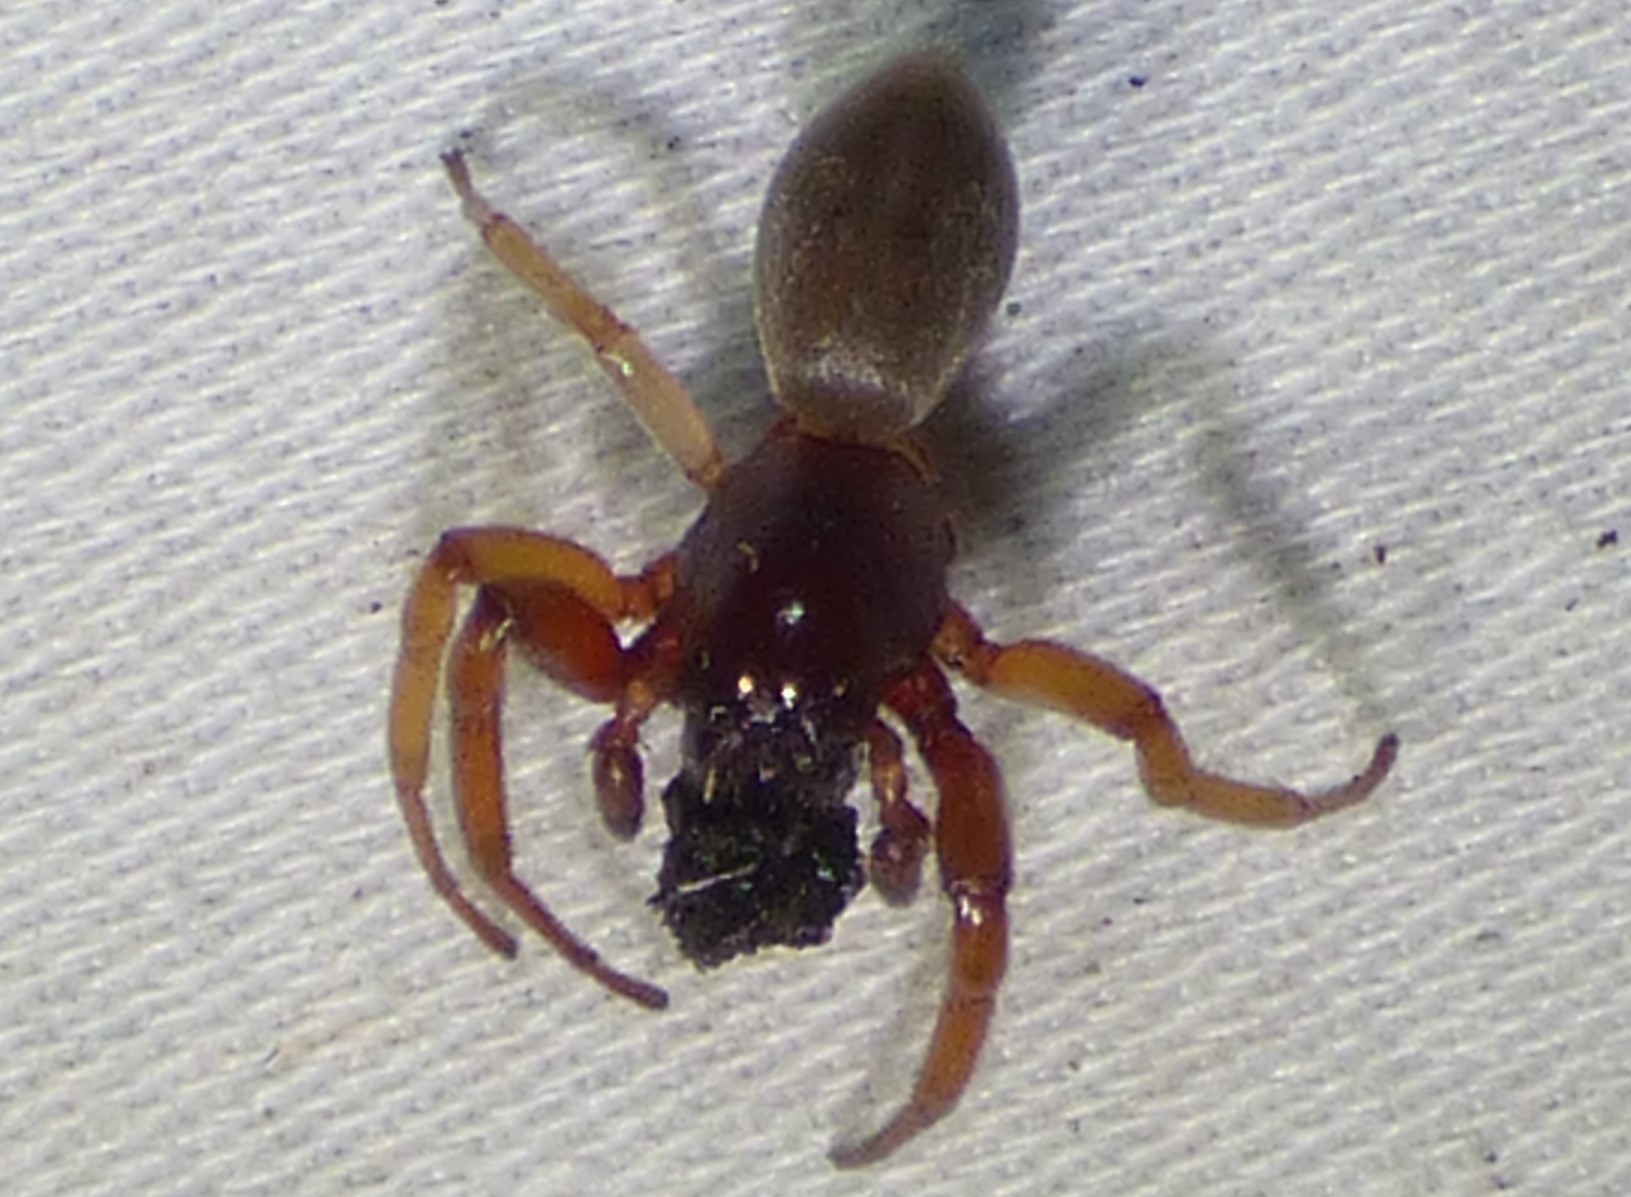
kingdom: Animalia
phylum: Arthropoda
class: Arachnida
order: Araneae
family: Trachelidae
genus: Trachelas
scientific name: Trachelas
